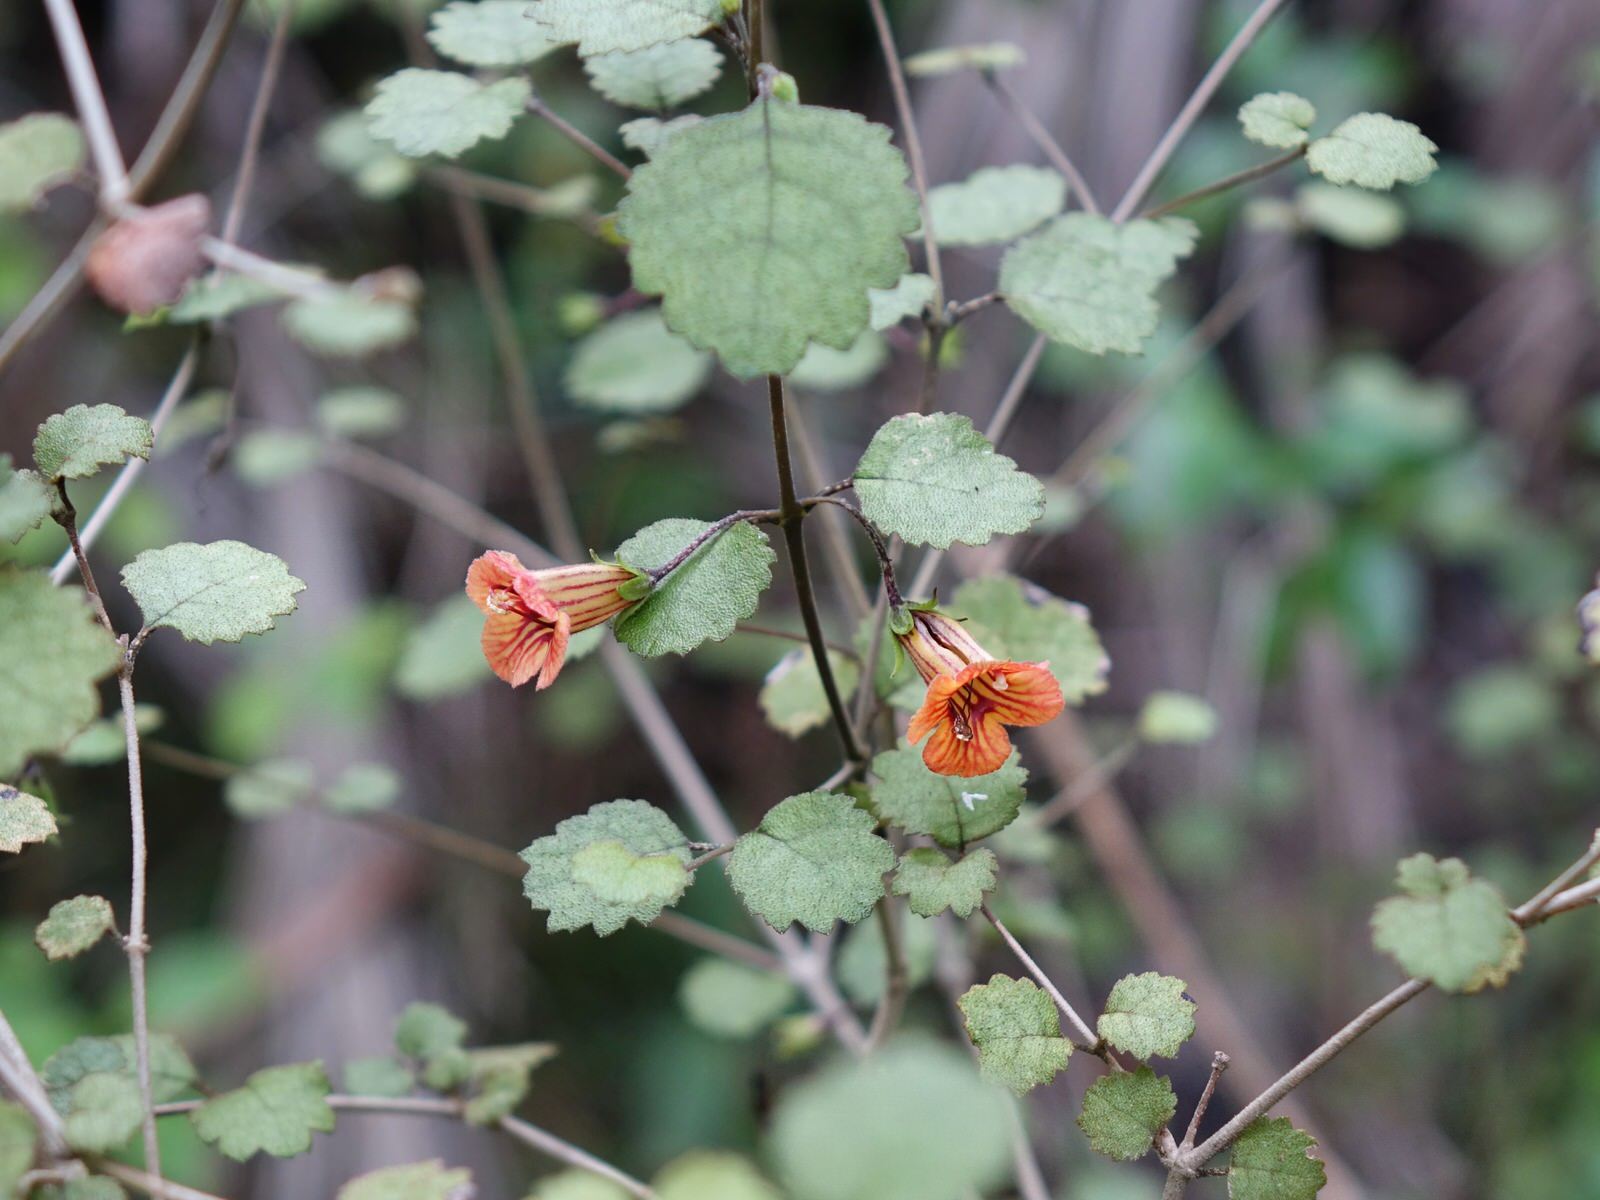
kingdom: Plantae
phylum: Tracheophyta
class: Magnoliopsida
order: Lamiales
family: Gesneriaceae
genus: Rhabdothamnus
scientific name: Rhabdothamnus solandri
